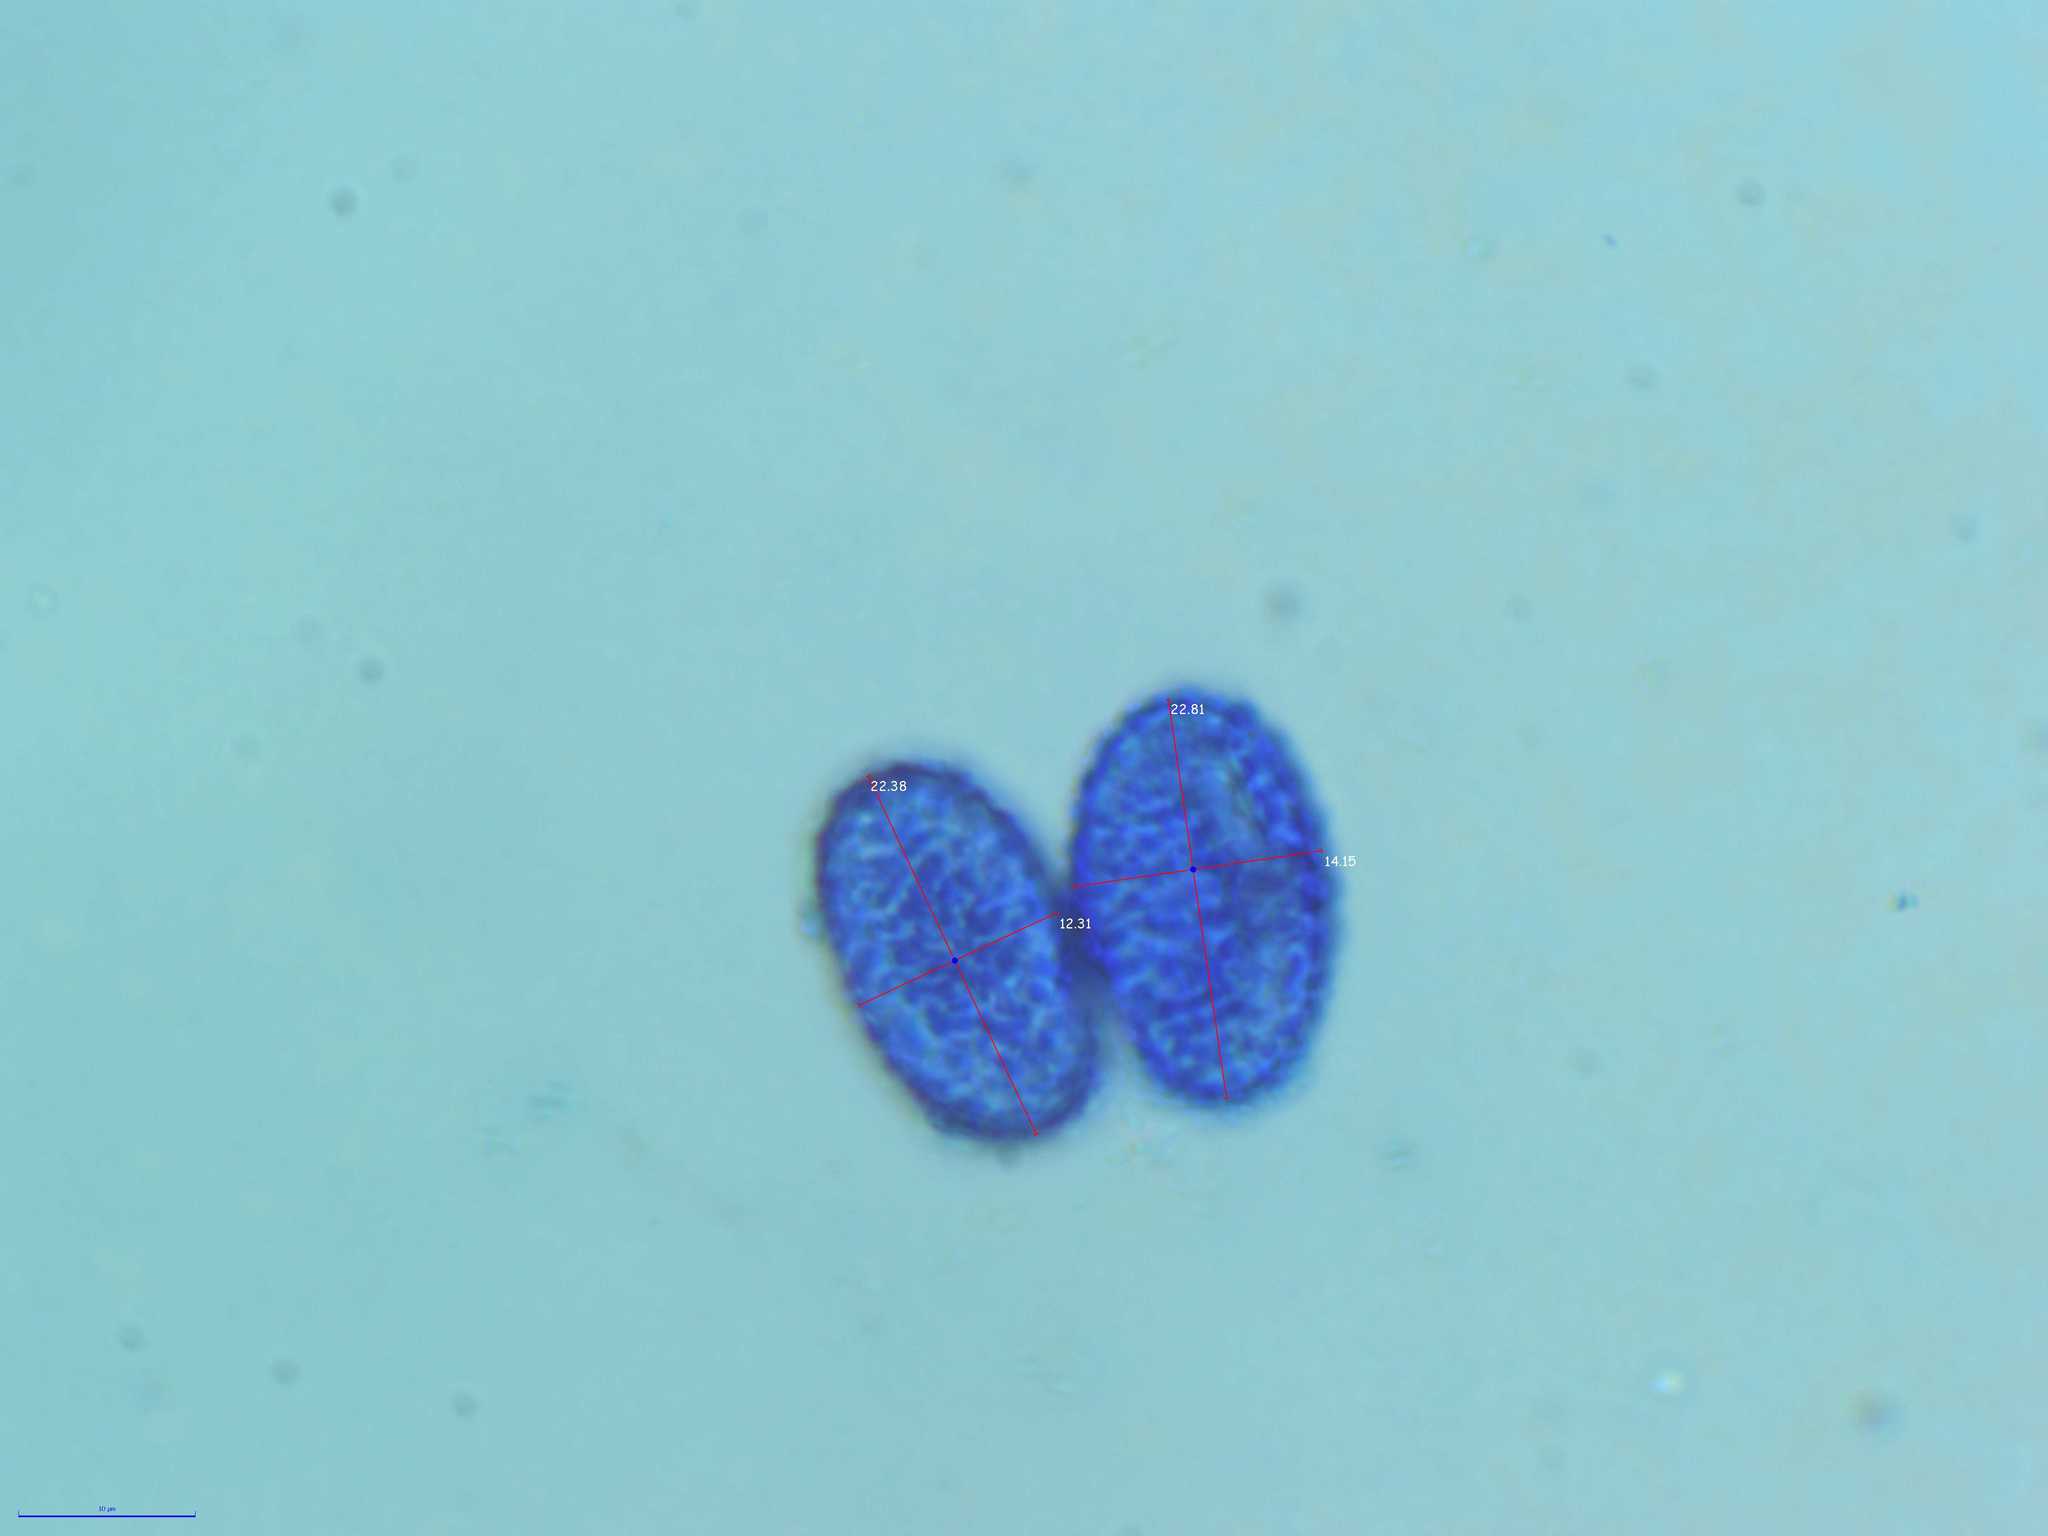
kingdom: Fungi
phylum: Ascomycota
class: Pezizomycetes
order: Pezizales
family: Pyronemataceae
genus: Scutellinia
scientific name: Scutellinia subhirtella
